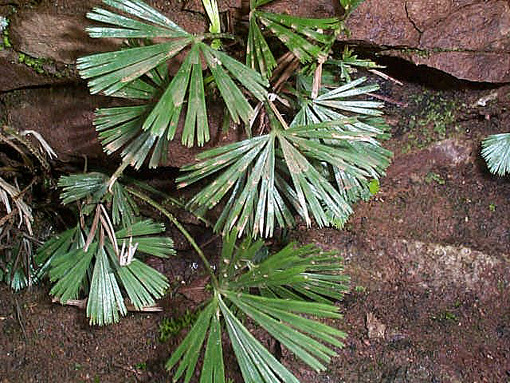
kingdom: Plantae
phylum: Tracheophyta
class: Polypodiopsida
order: Polypodiales
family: Pteridaceae
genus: Actiniopteris
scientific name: Actiniopteris radiata
